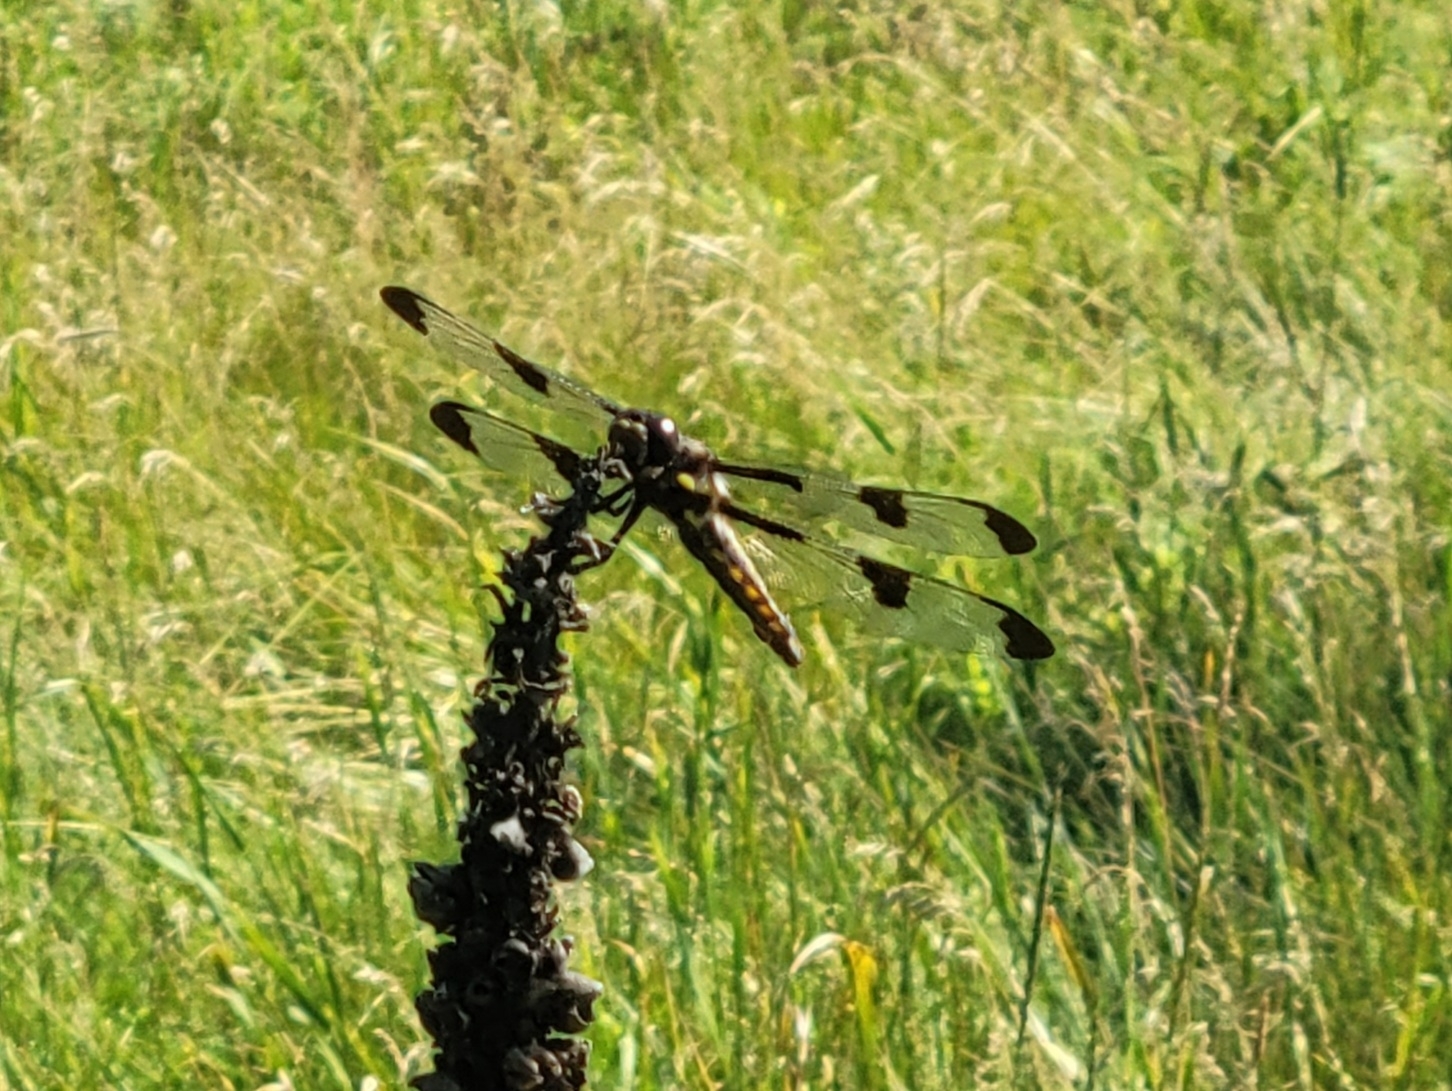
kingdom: Animalia
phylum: Arthropoda
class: Insecta
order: Odonata
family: Libellulidae
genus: Libellula
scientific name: Libellula pulchella
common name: Twelve-spotted skimmer
